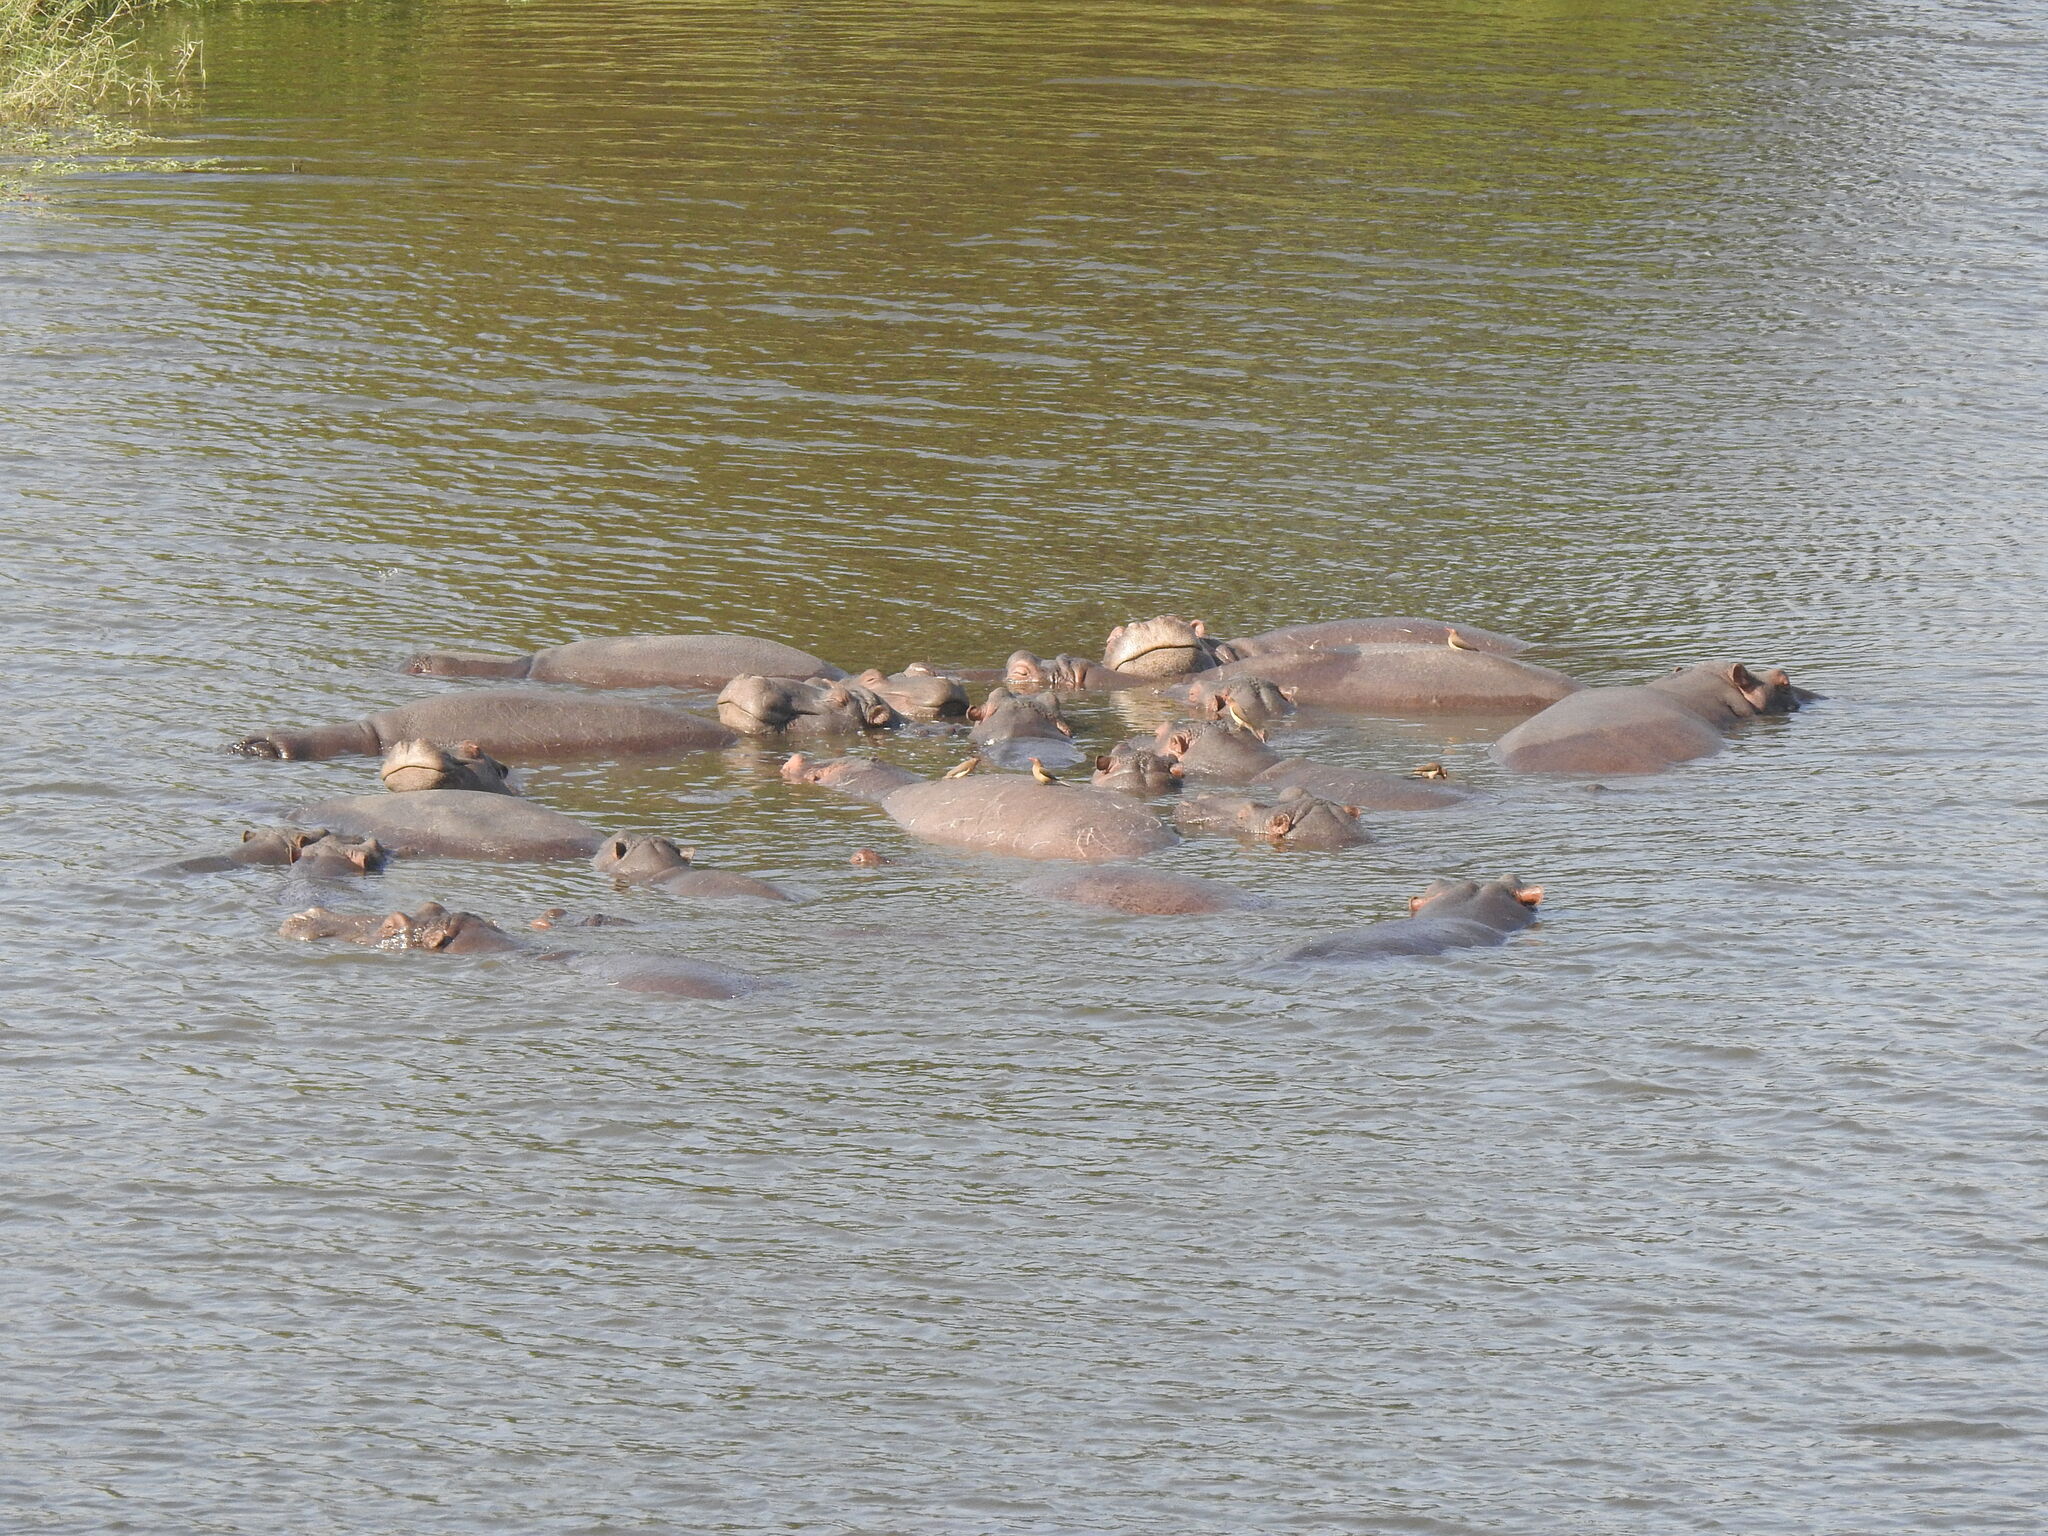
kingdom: Animalia
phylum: Chordata
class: Mammalia
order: Artiodactyla
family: Hippopotamidae
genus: Hippopotamus
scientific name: Hippopotamus amphibius
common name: Common hippopotamus
